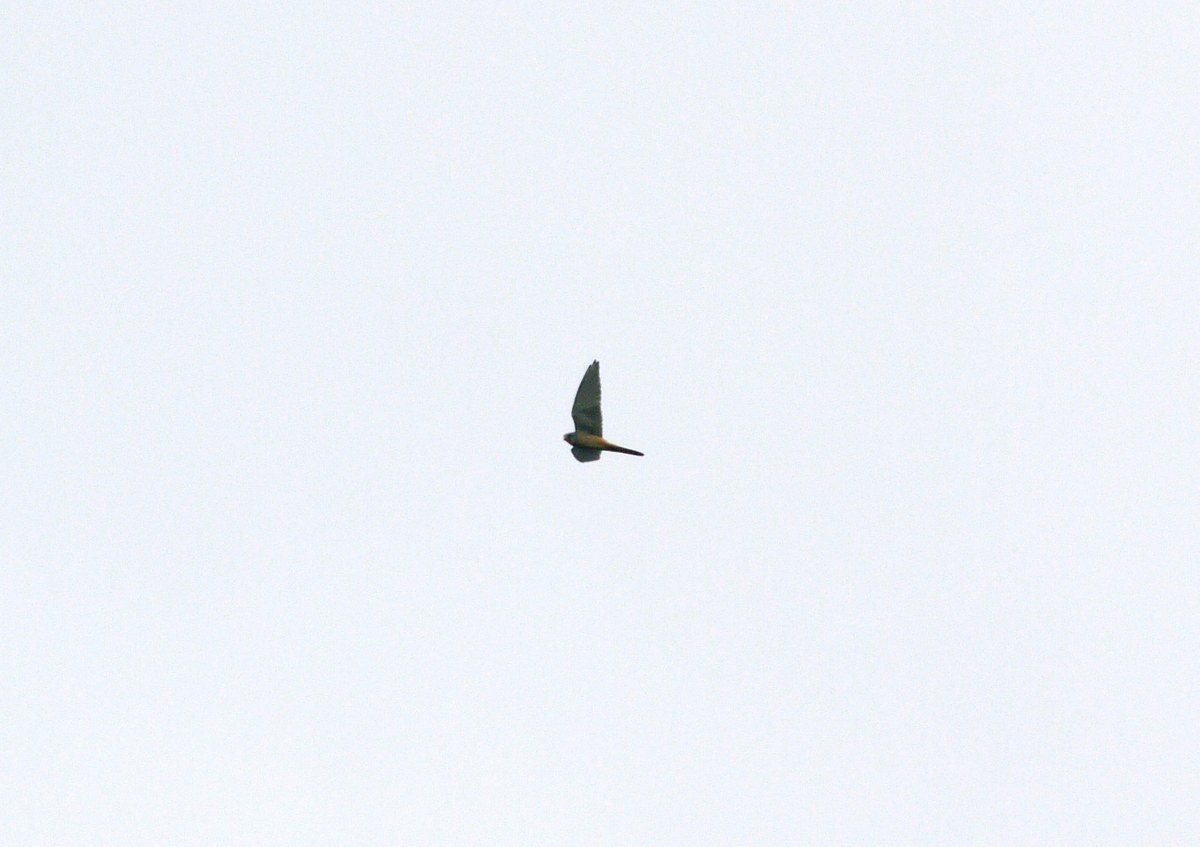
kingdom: Animalia
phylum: Chordata
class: Aves
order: Falconiformes
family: Falconidae
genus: Falco
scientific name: Falco tinnunculus
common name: Common kestrel
